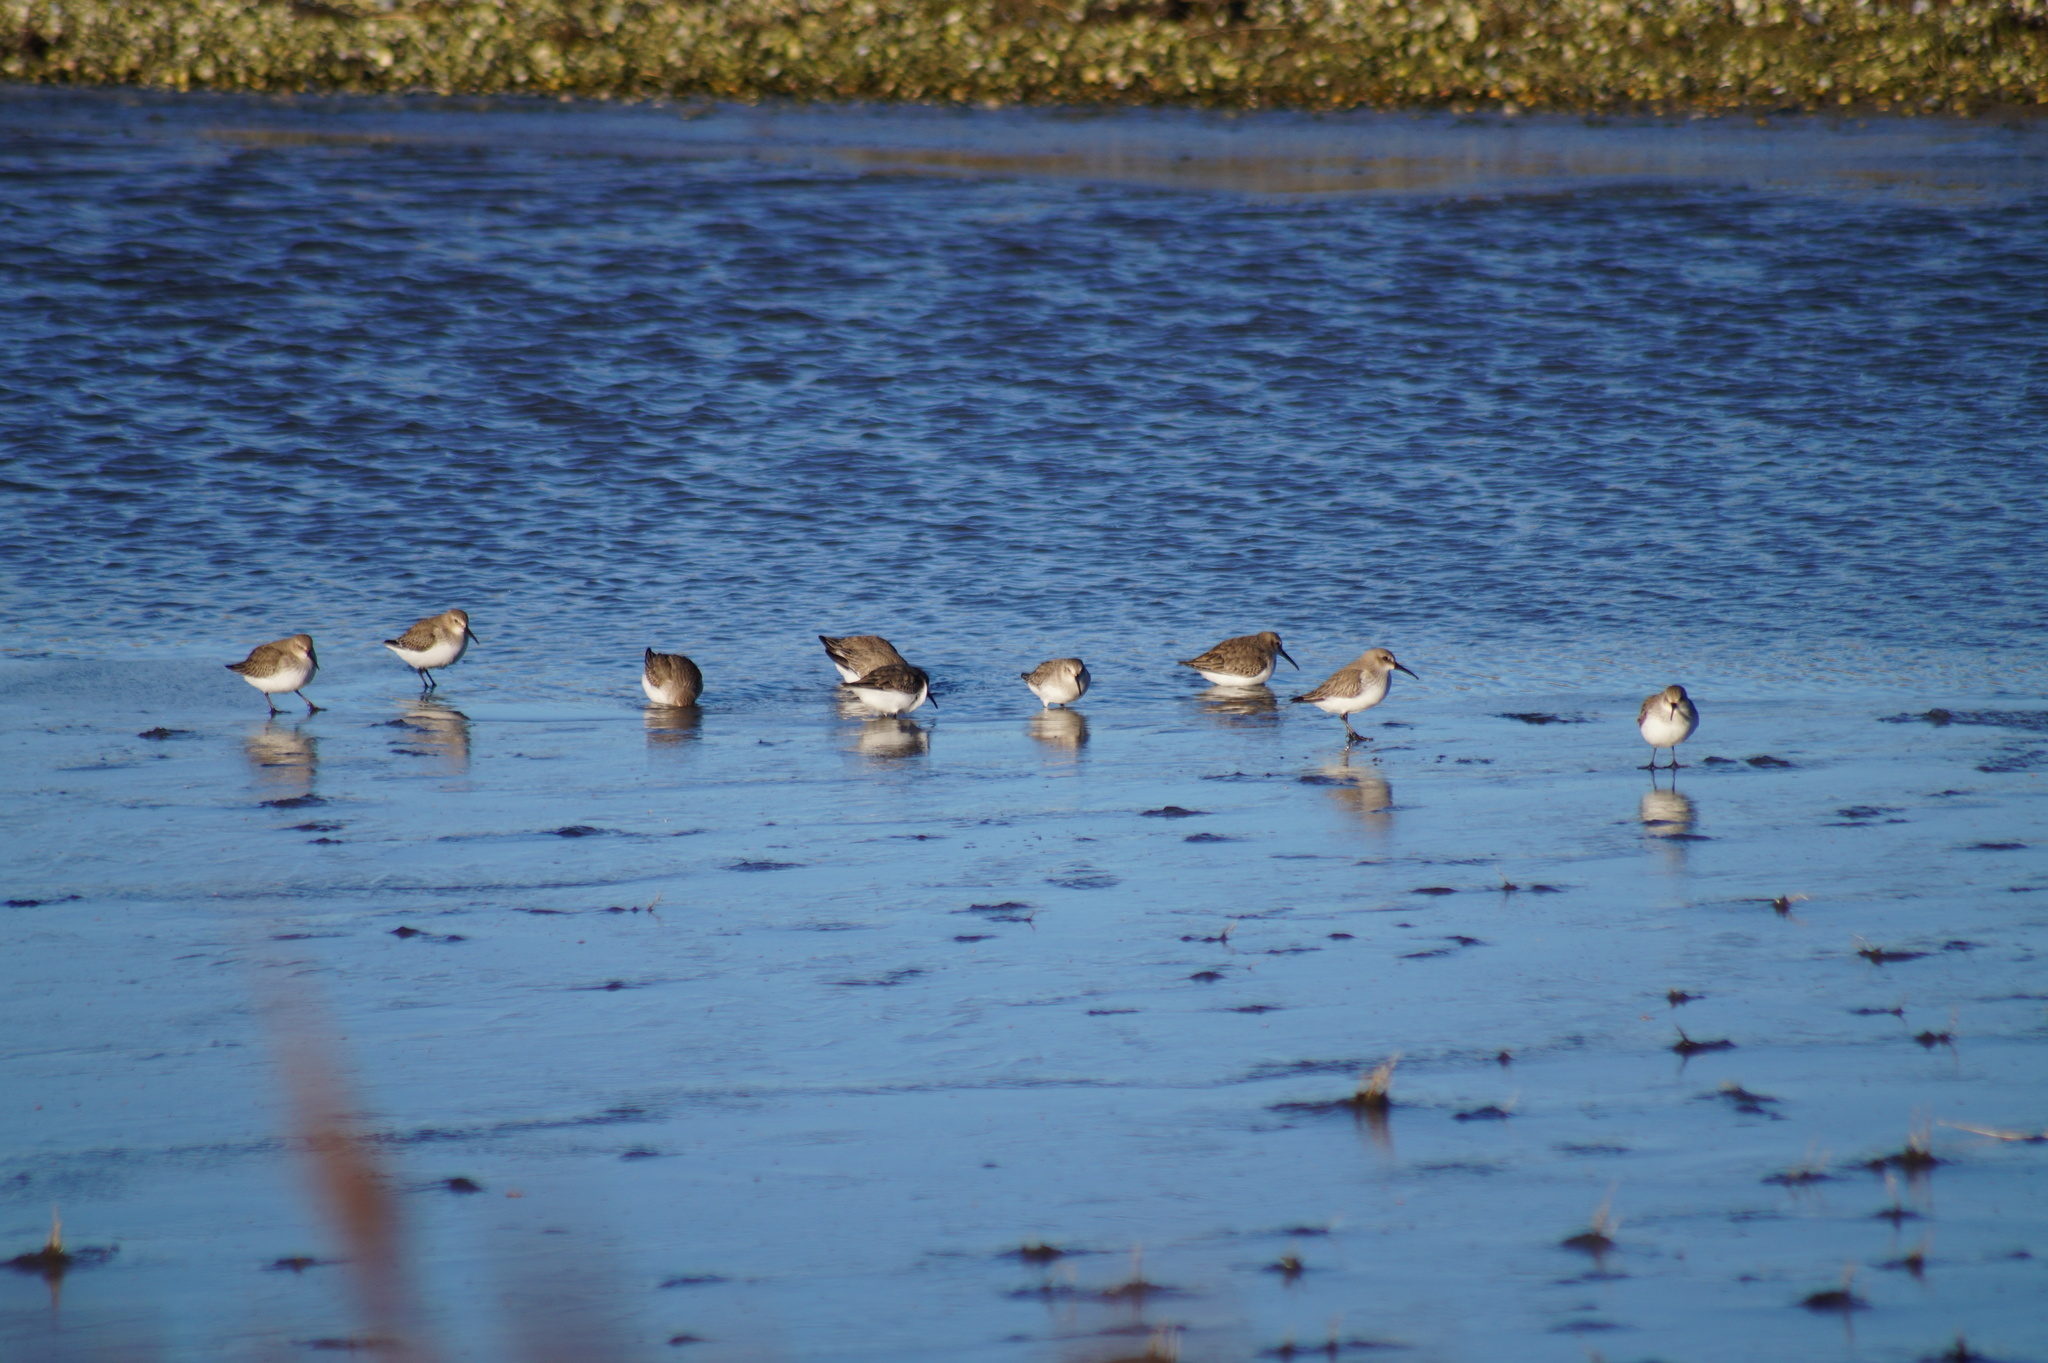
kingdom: Animalia
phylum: Chordata
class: Aves
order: Charadriiformes
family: Scolopacidae
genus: Calidris
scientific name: Calidris alpina
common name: Dunlin
